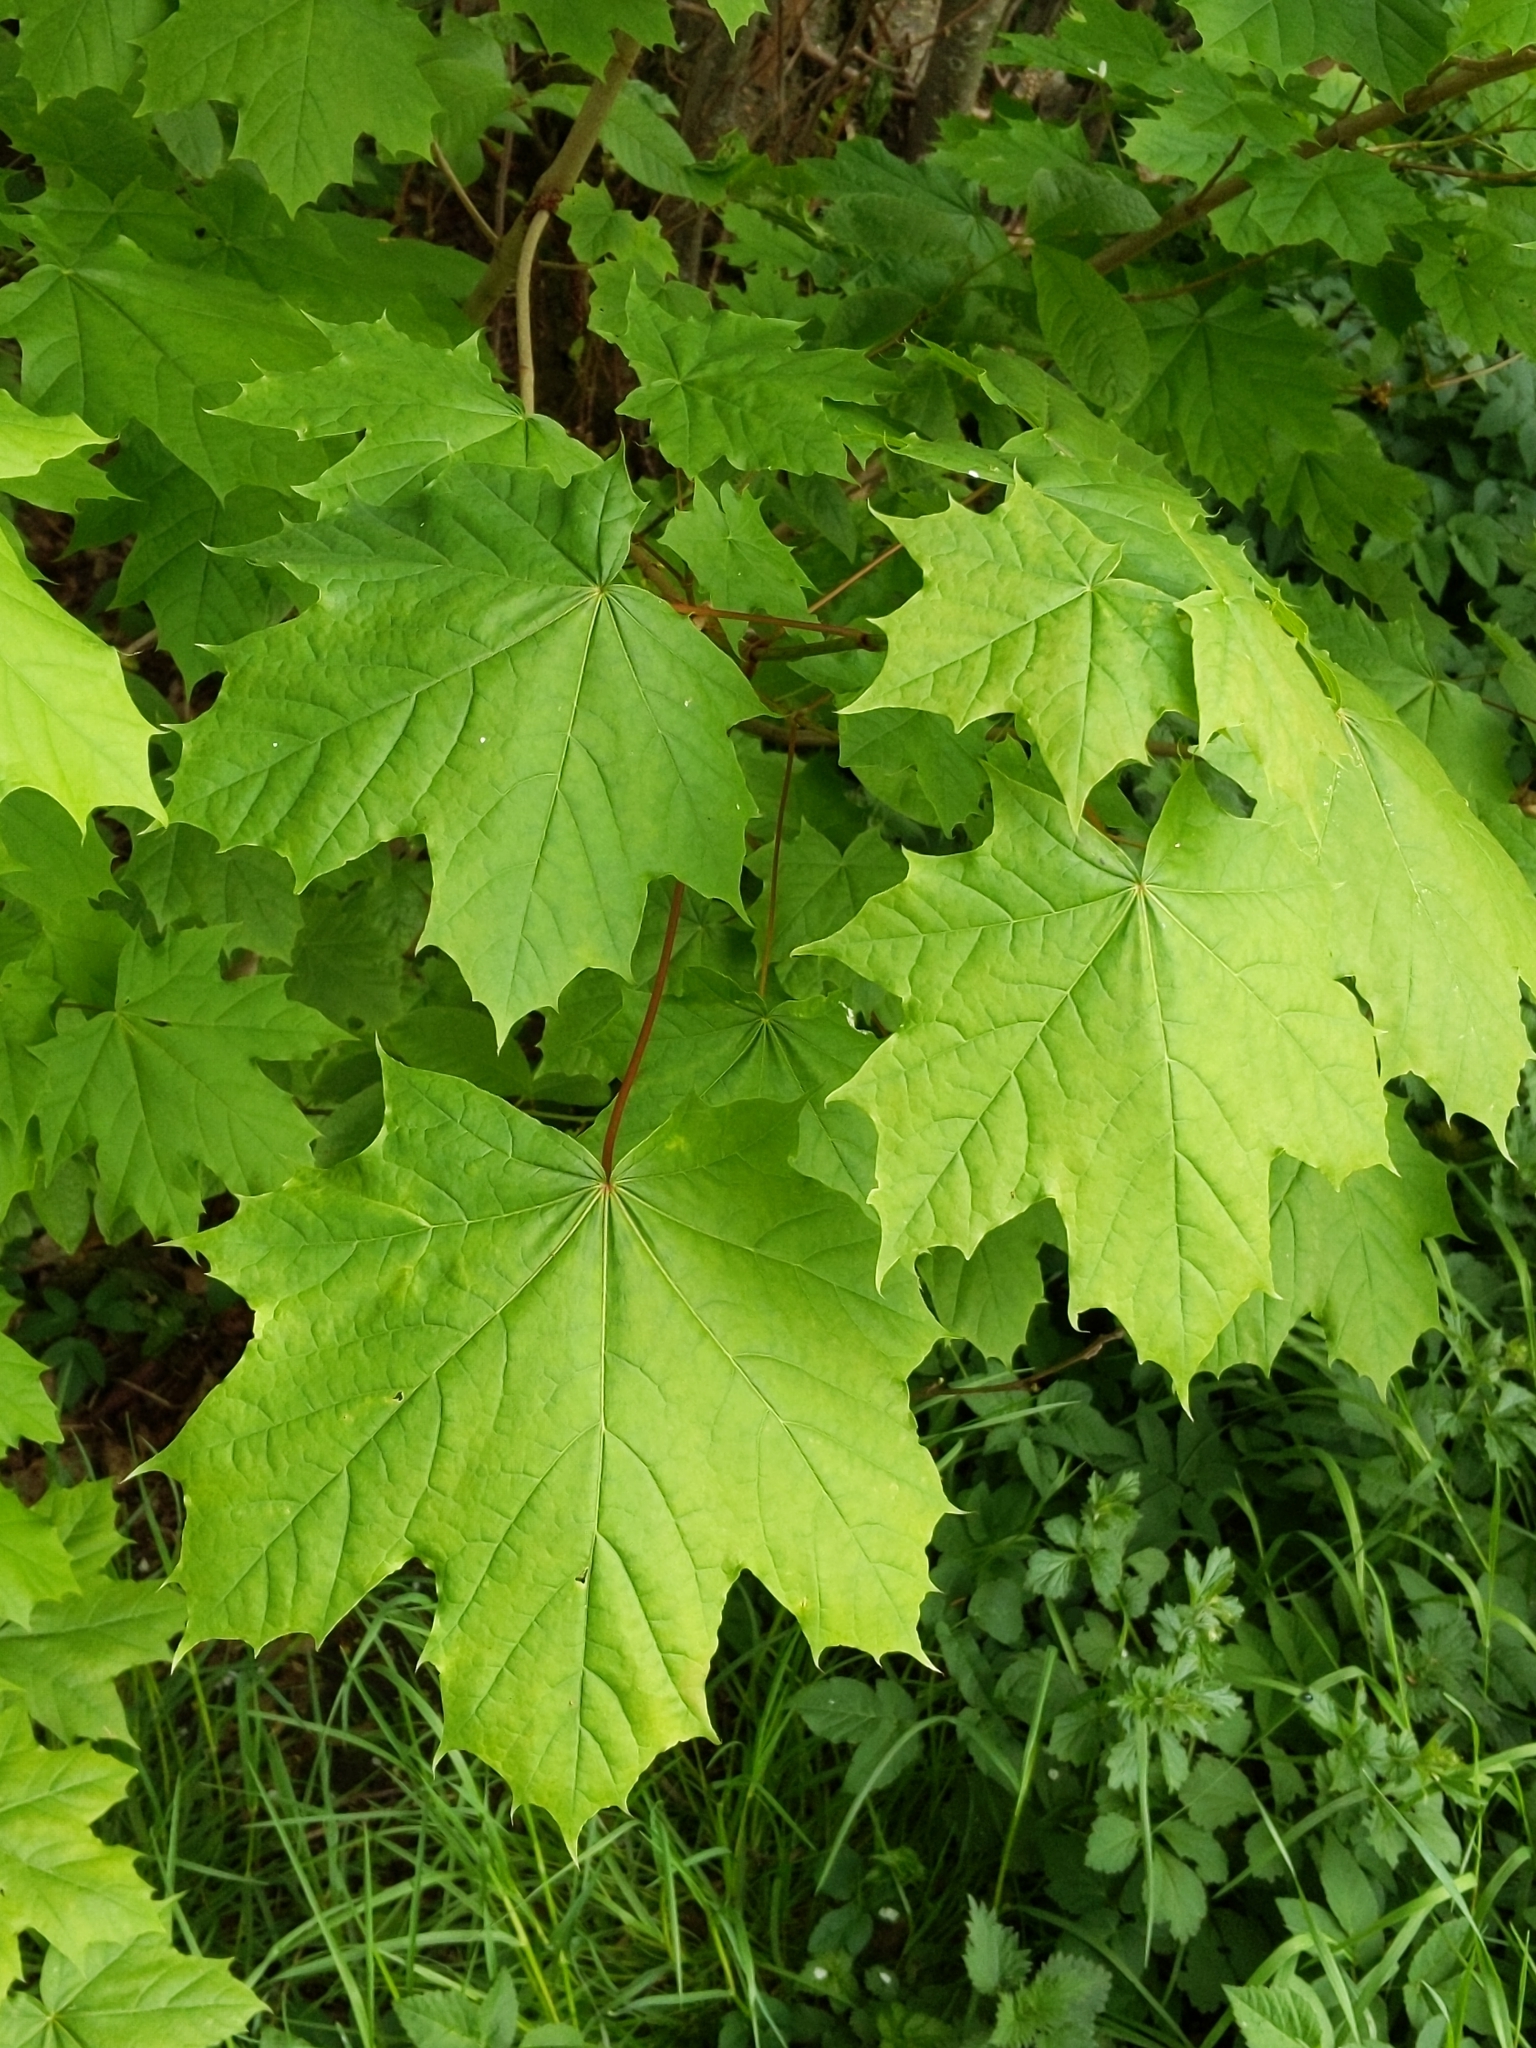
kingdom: Plantae
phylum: Tracheophyta
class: Magnoliopsida
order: Sapindales
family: Sapindaceae
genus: Acer
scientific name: Acer platanoides
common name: Norway maple
